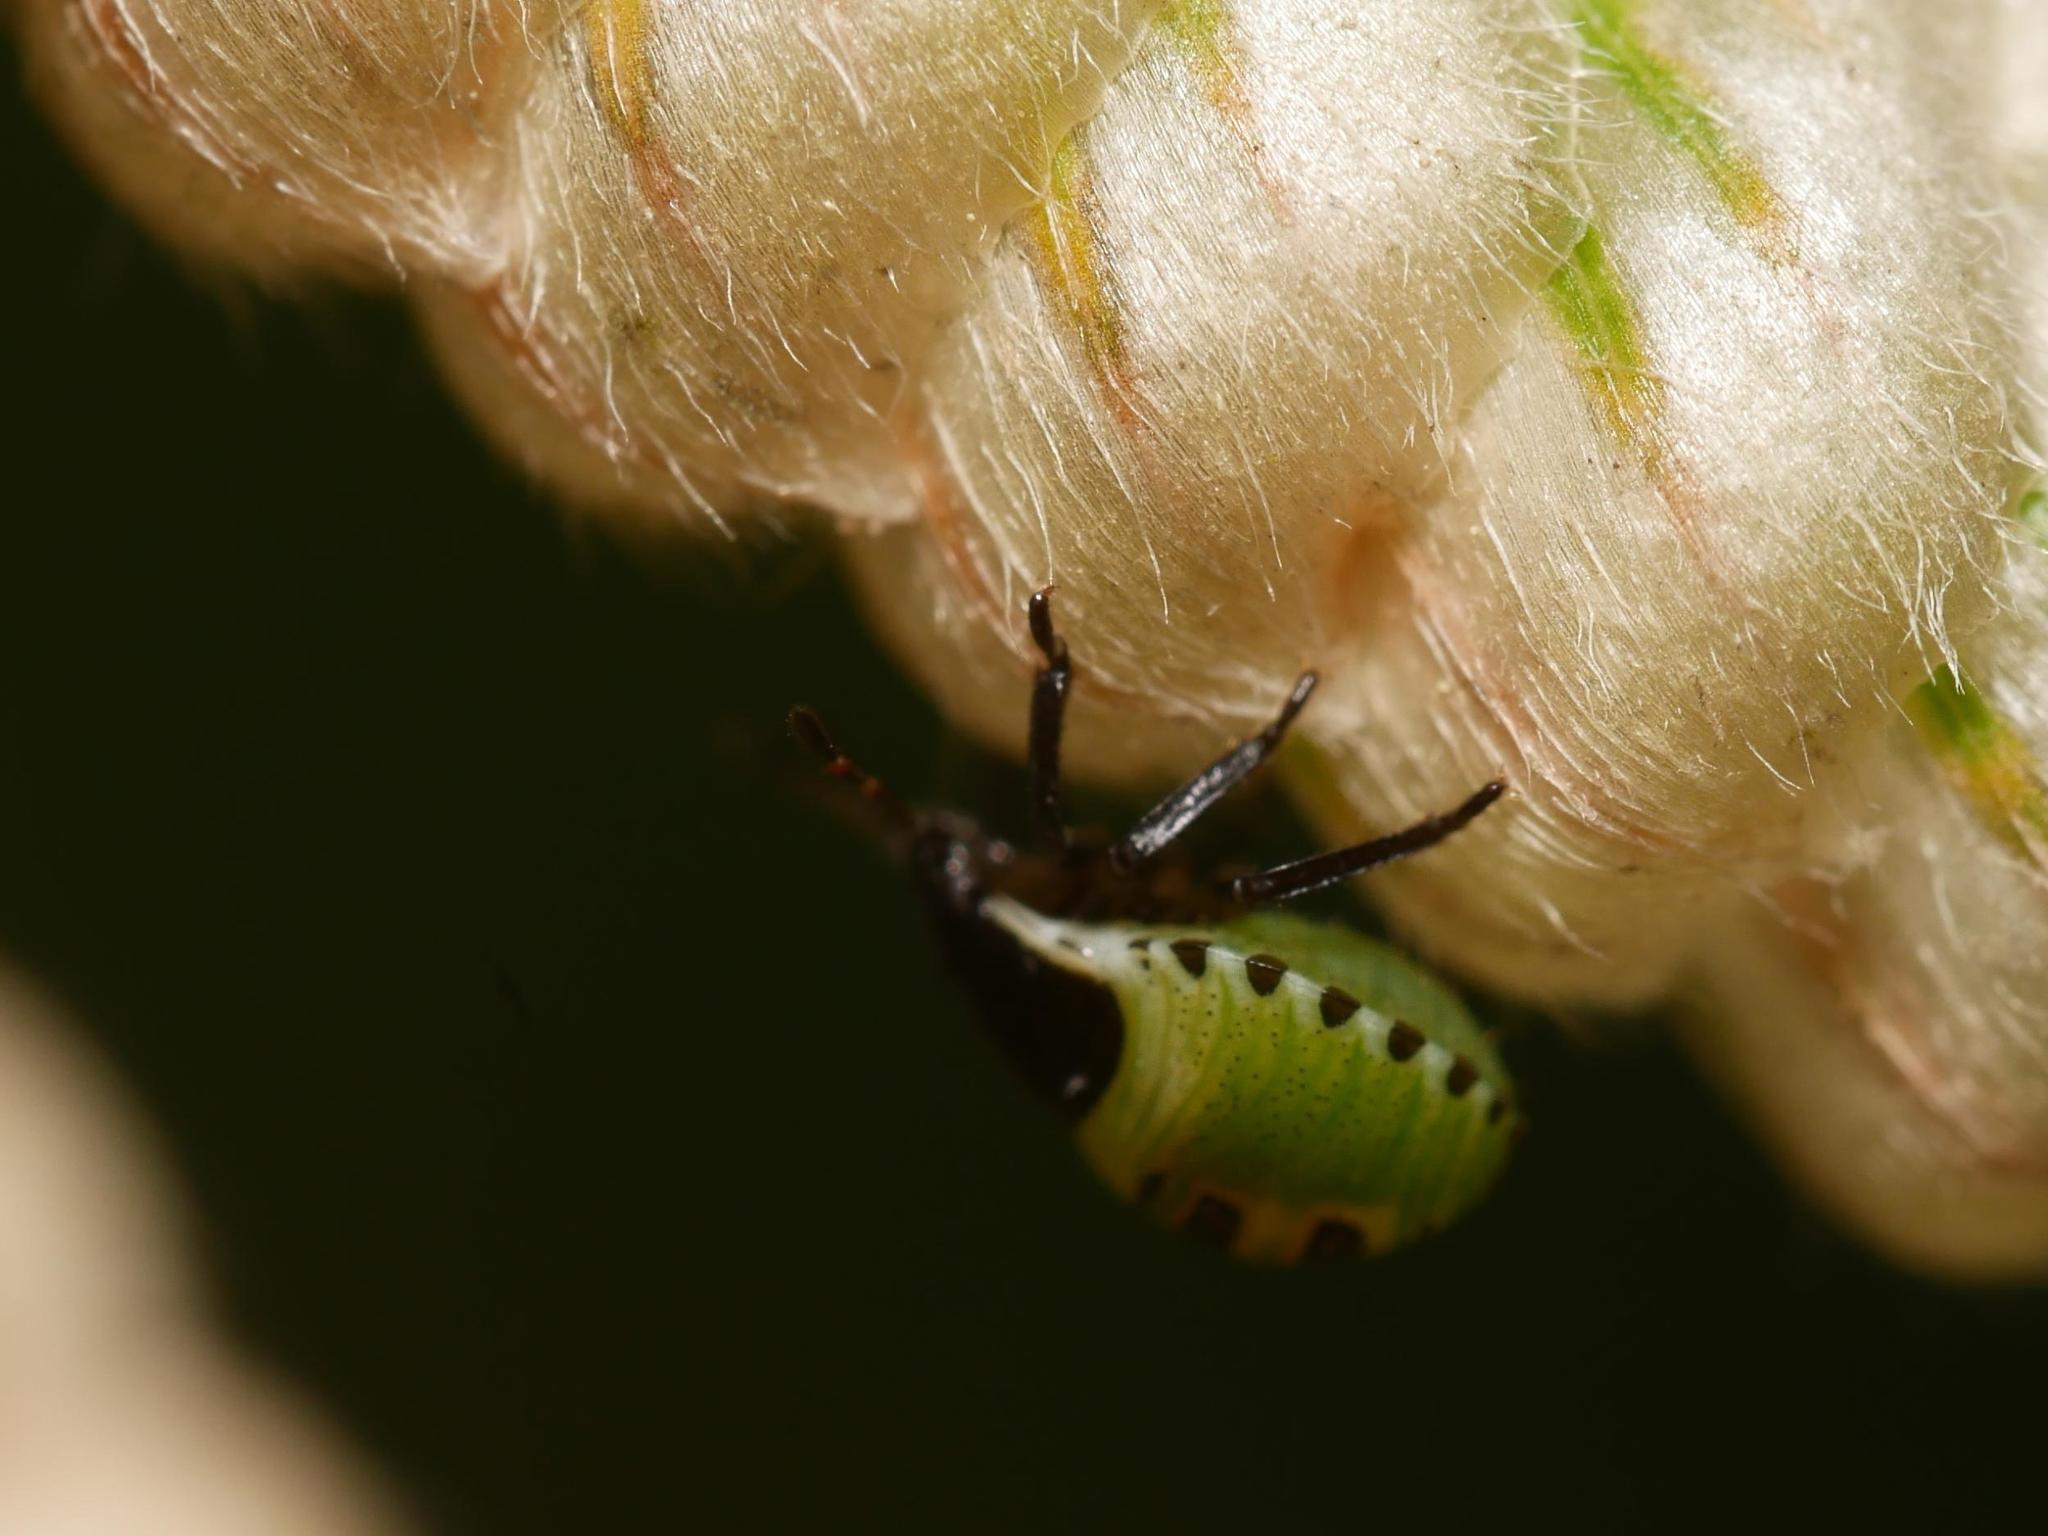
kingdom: Animalia
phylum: Arthropoda
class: Insecta
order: Hemiptera
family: Pentatomidae
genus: Palomena
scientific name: Palomena prasina
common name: Green shieldbug
